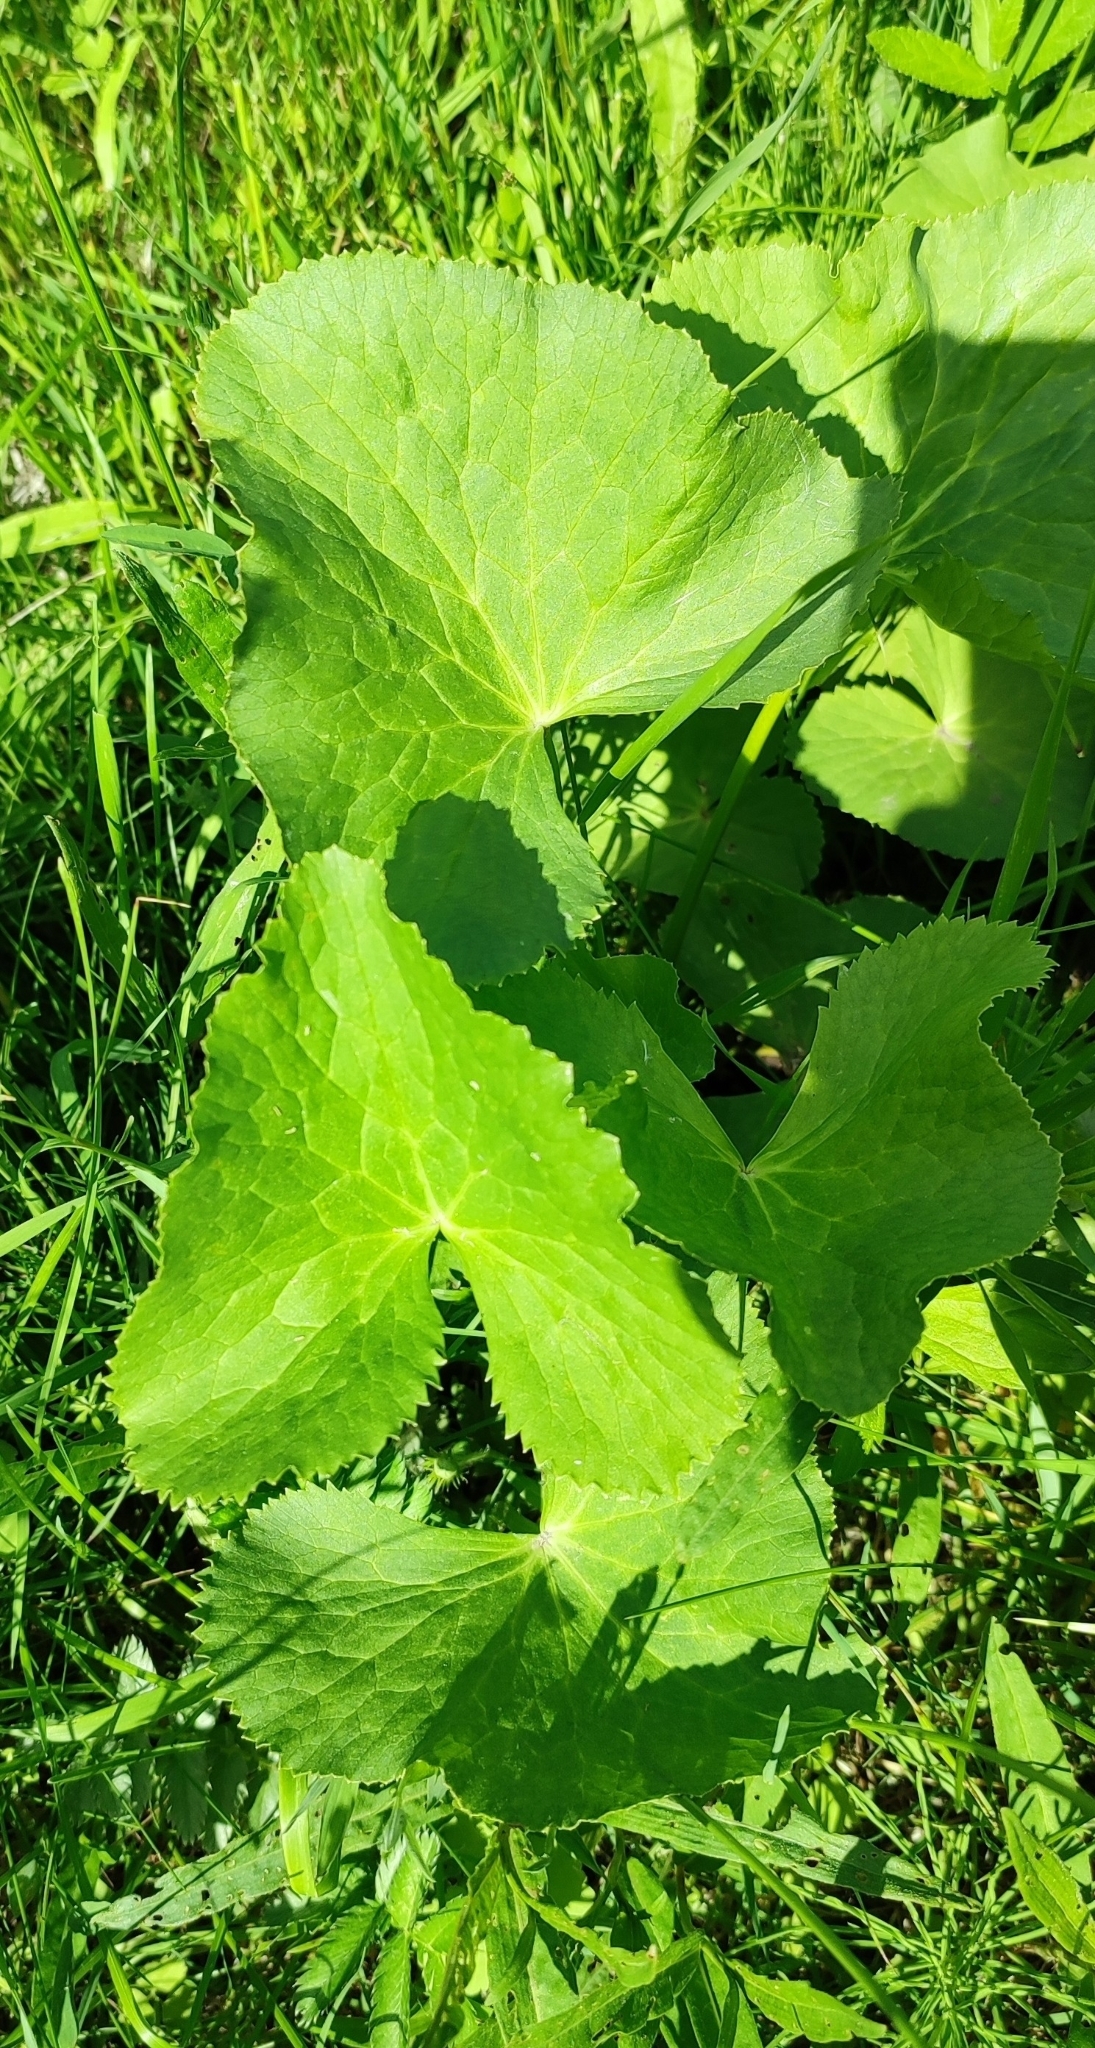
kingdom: Plantae
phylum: Tracheophyta
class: Magnoliopsida
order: Ranunculales
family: Ranunculaceae
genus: Caltha
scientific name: Caltha palustris
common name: Marsh marigold
